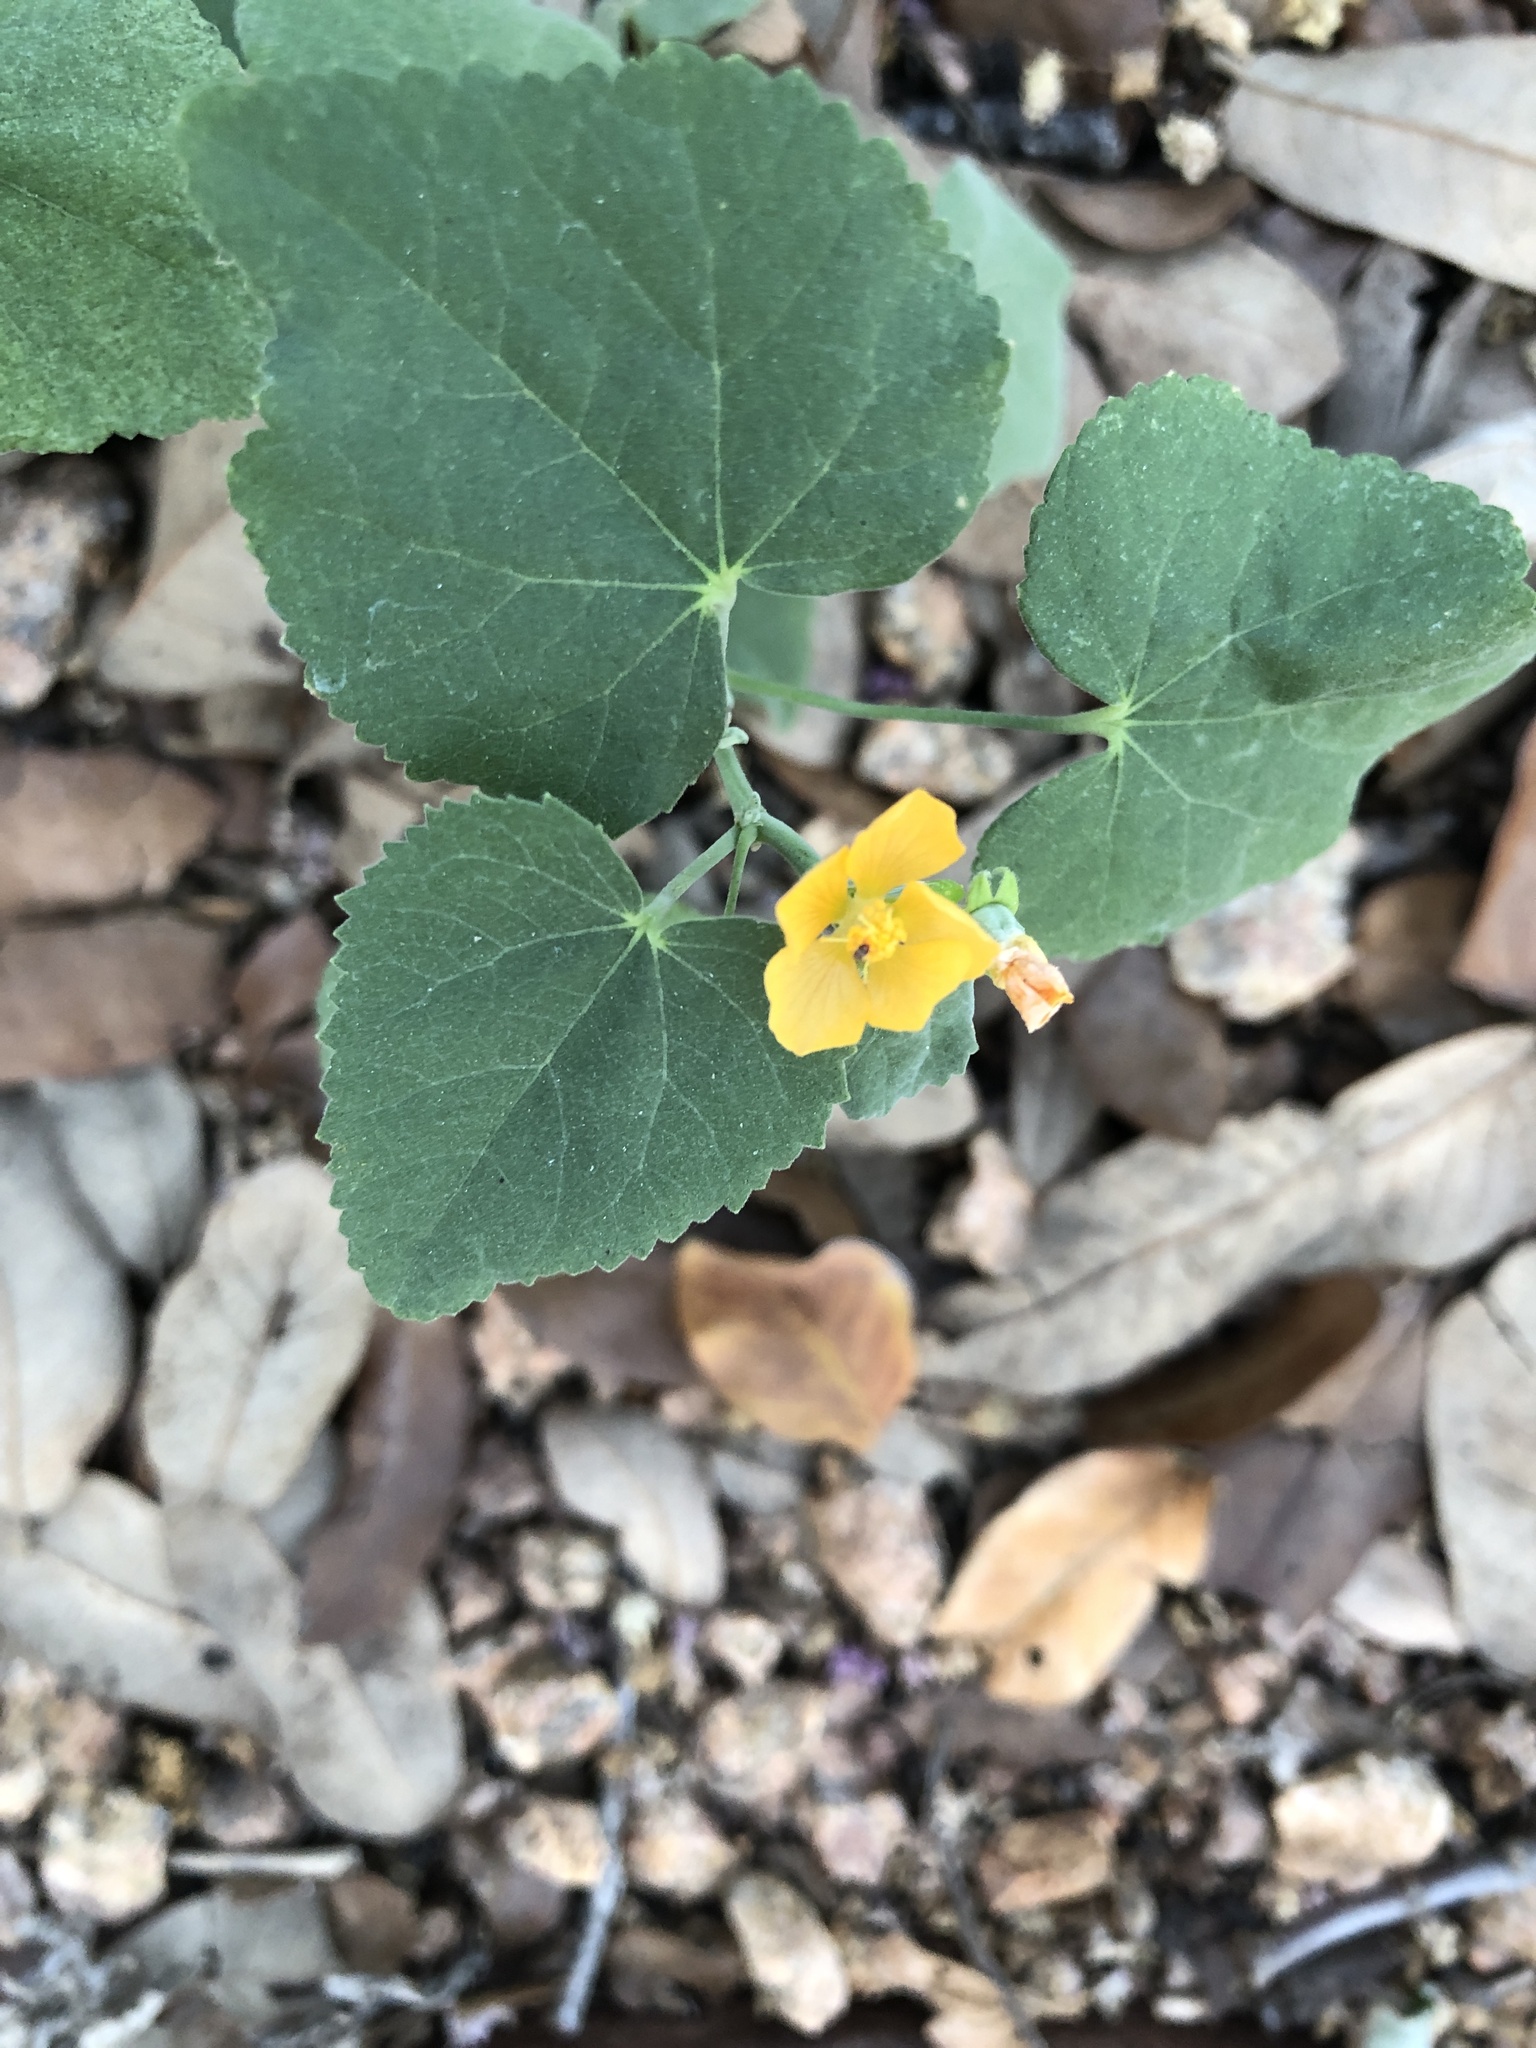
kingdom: Plantae
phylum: Tracheophyta
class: Magnoliopsida
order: Malvales
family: Malvaceae
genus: Allowissadula
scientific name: Allowissadula holosericea
